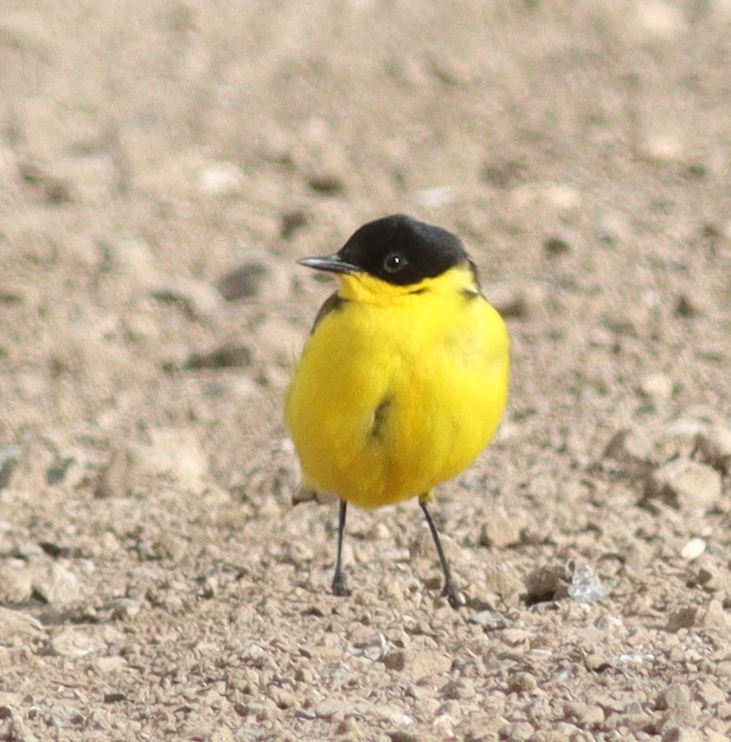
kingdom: Animalia
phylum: Chordata
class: Aves
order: Passeriformes
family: Motacillidae
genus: Motacilla
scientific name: Motacilla flava
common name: Western yellow wagtail
